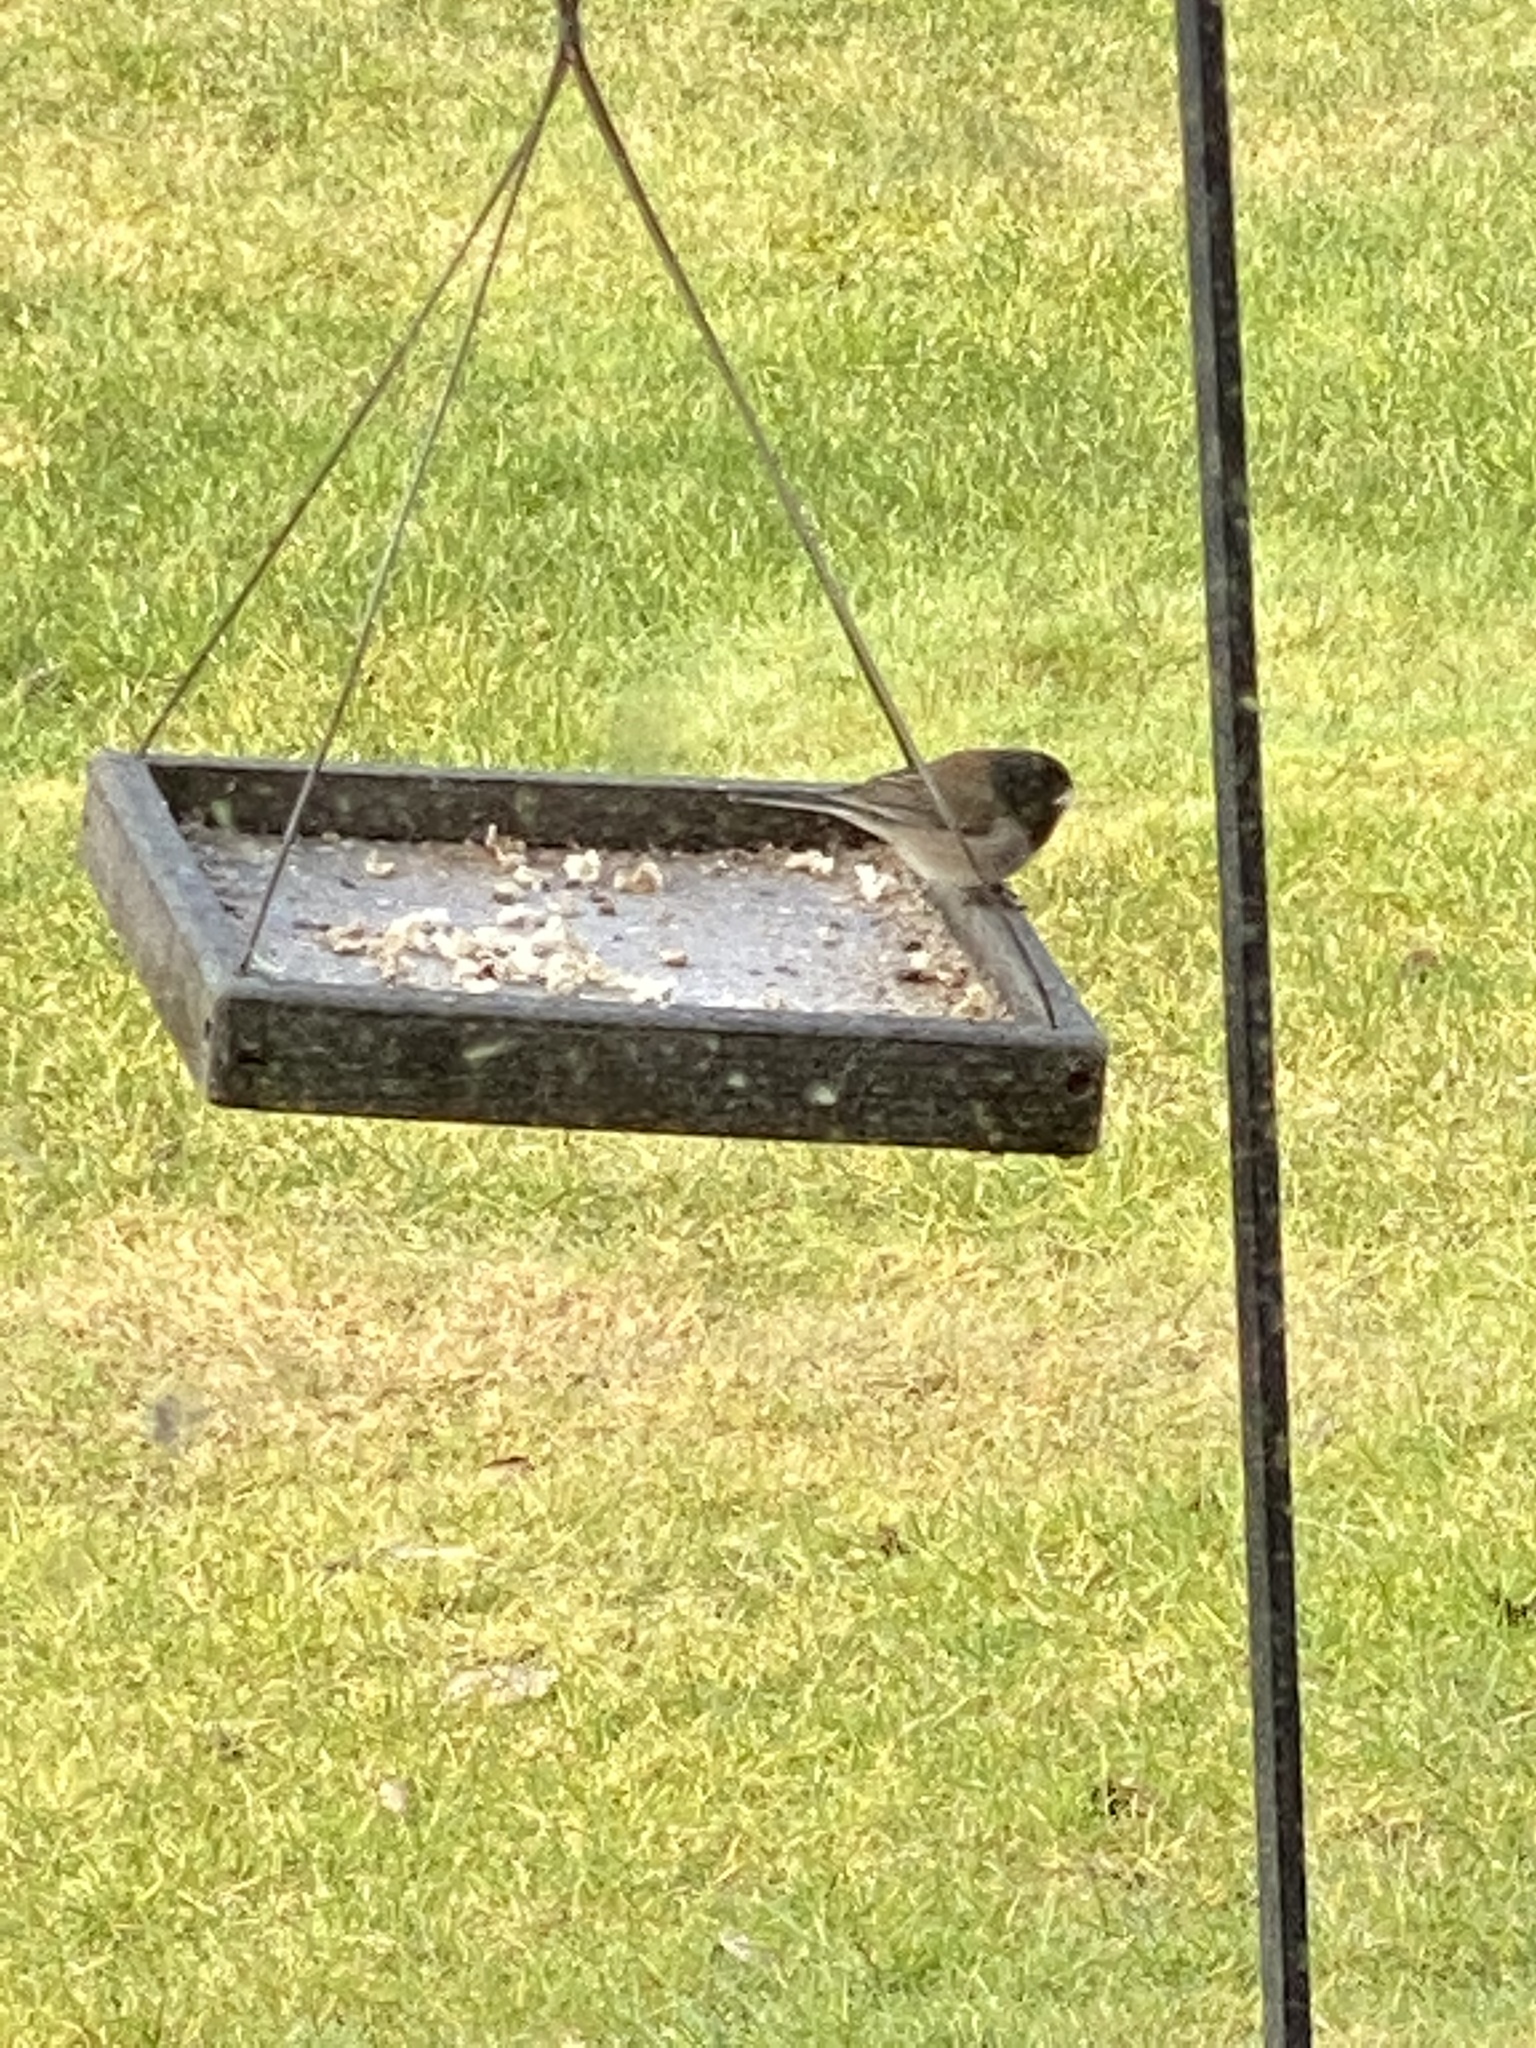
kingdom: Animalia
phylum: Chordata
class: Aves
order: Passeriformes
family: Passerellidae
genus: Junco
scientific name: Junco hyemalis
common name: Dark-eyed junco
